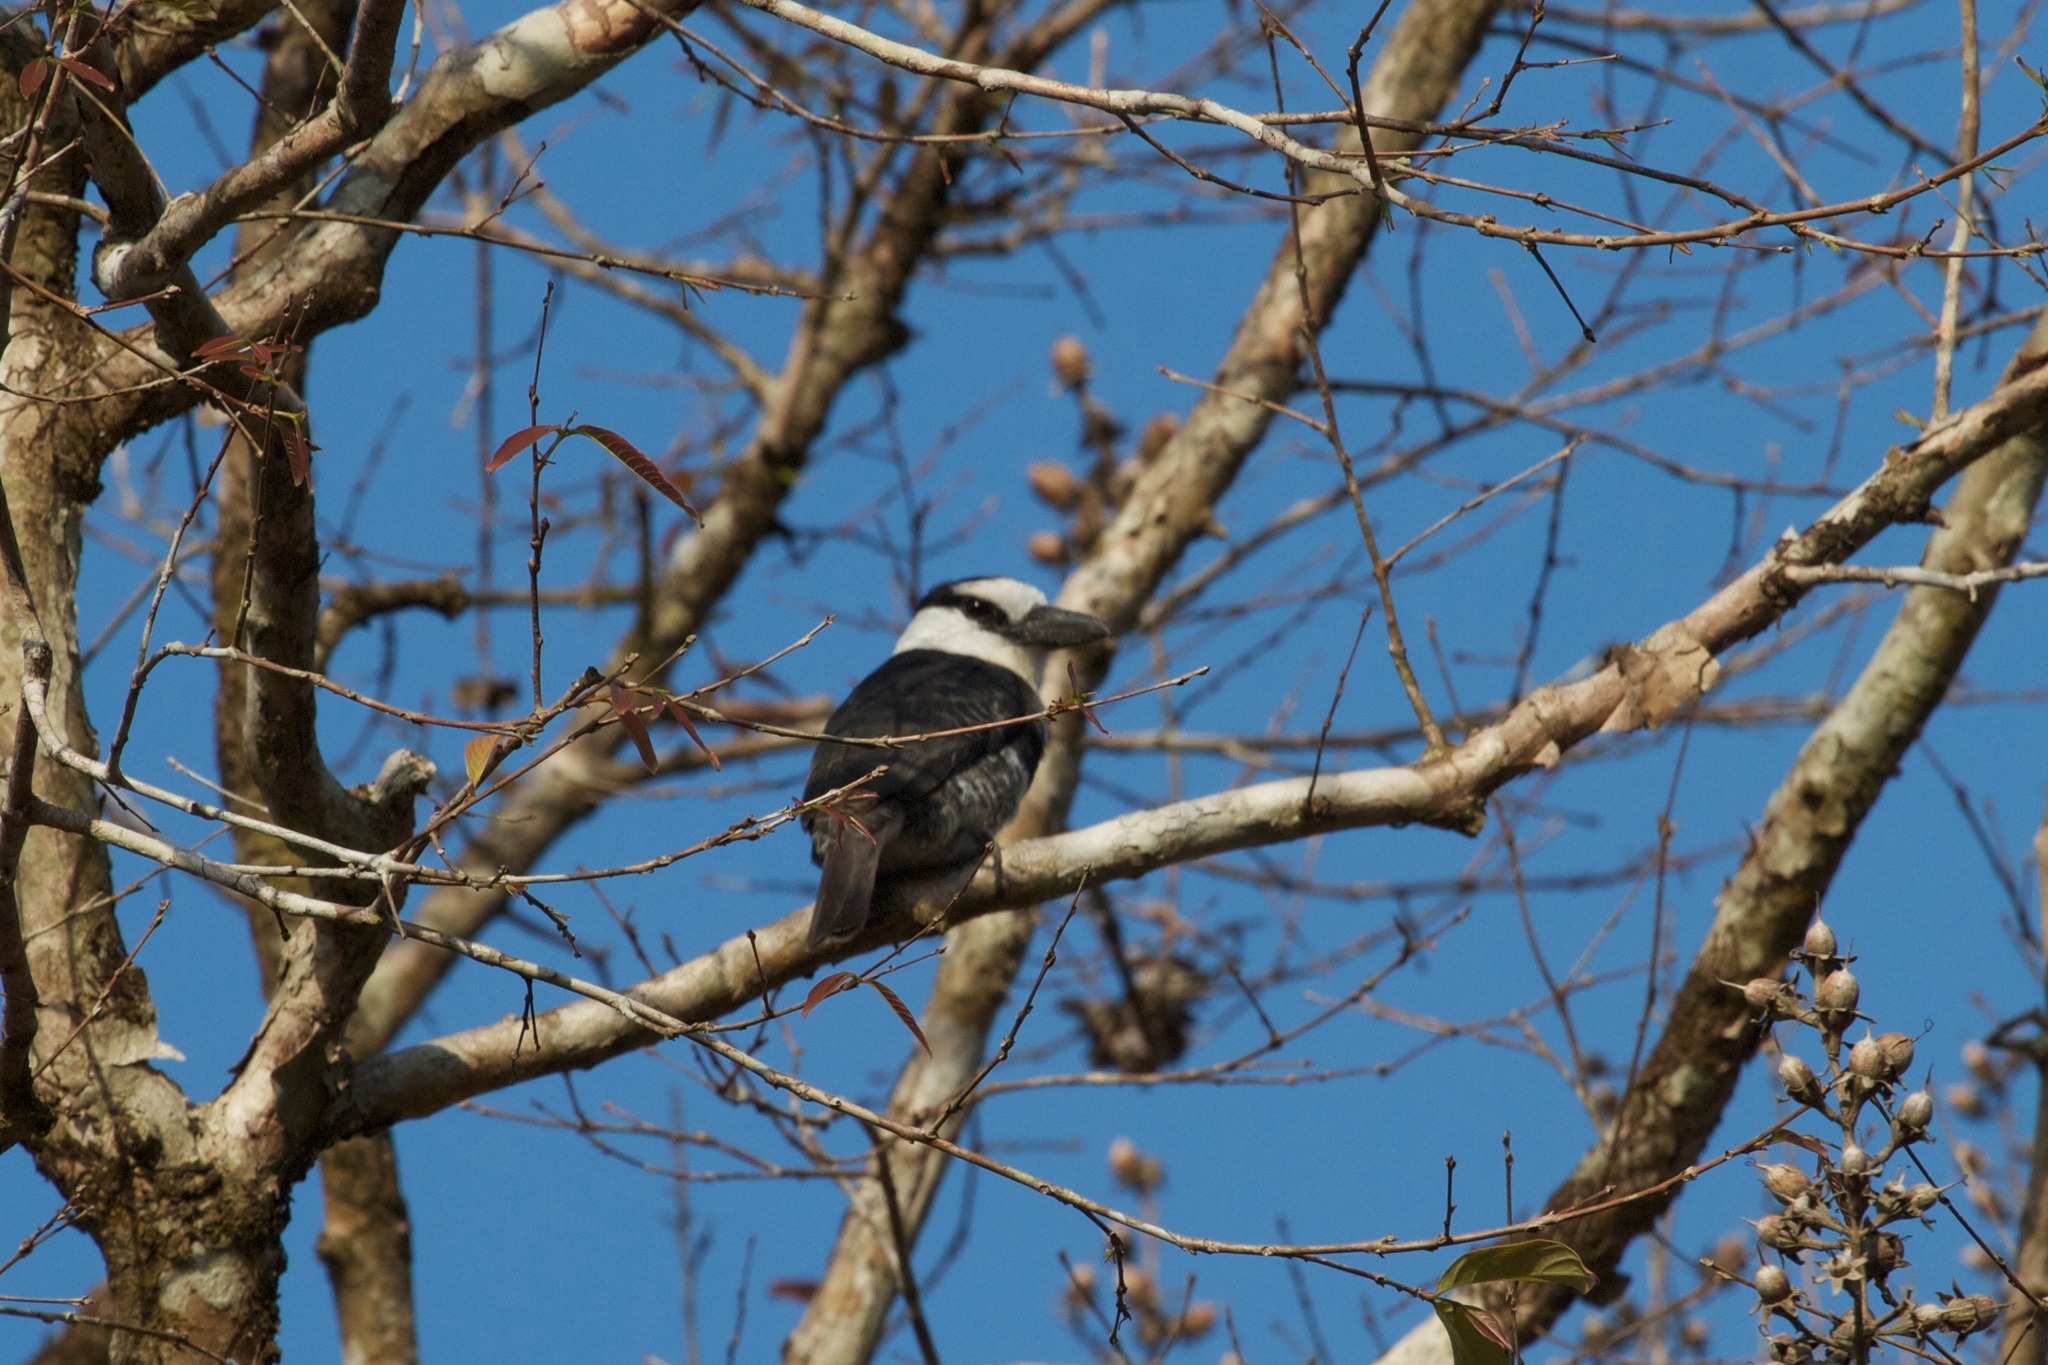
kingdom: Animalia
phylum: Chordata
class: Aves
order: Piciformes
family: Bucconidae
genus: Notharchus
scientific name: Notharchus hyperrhynchus
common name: White-necked puffbird
